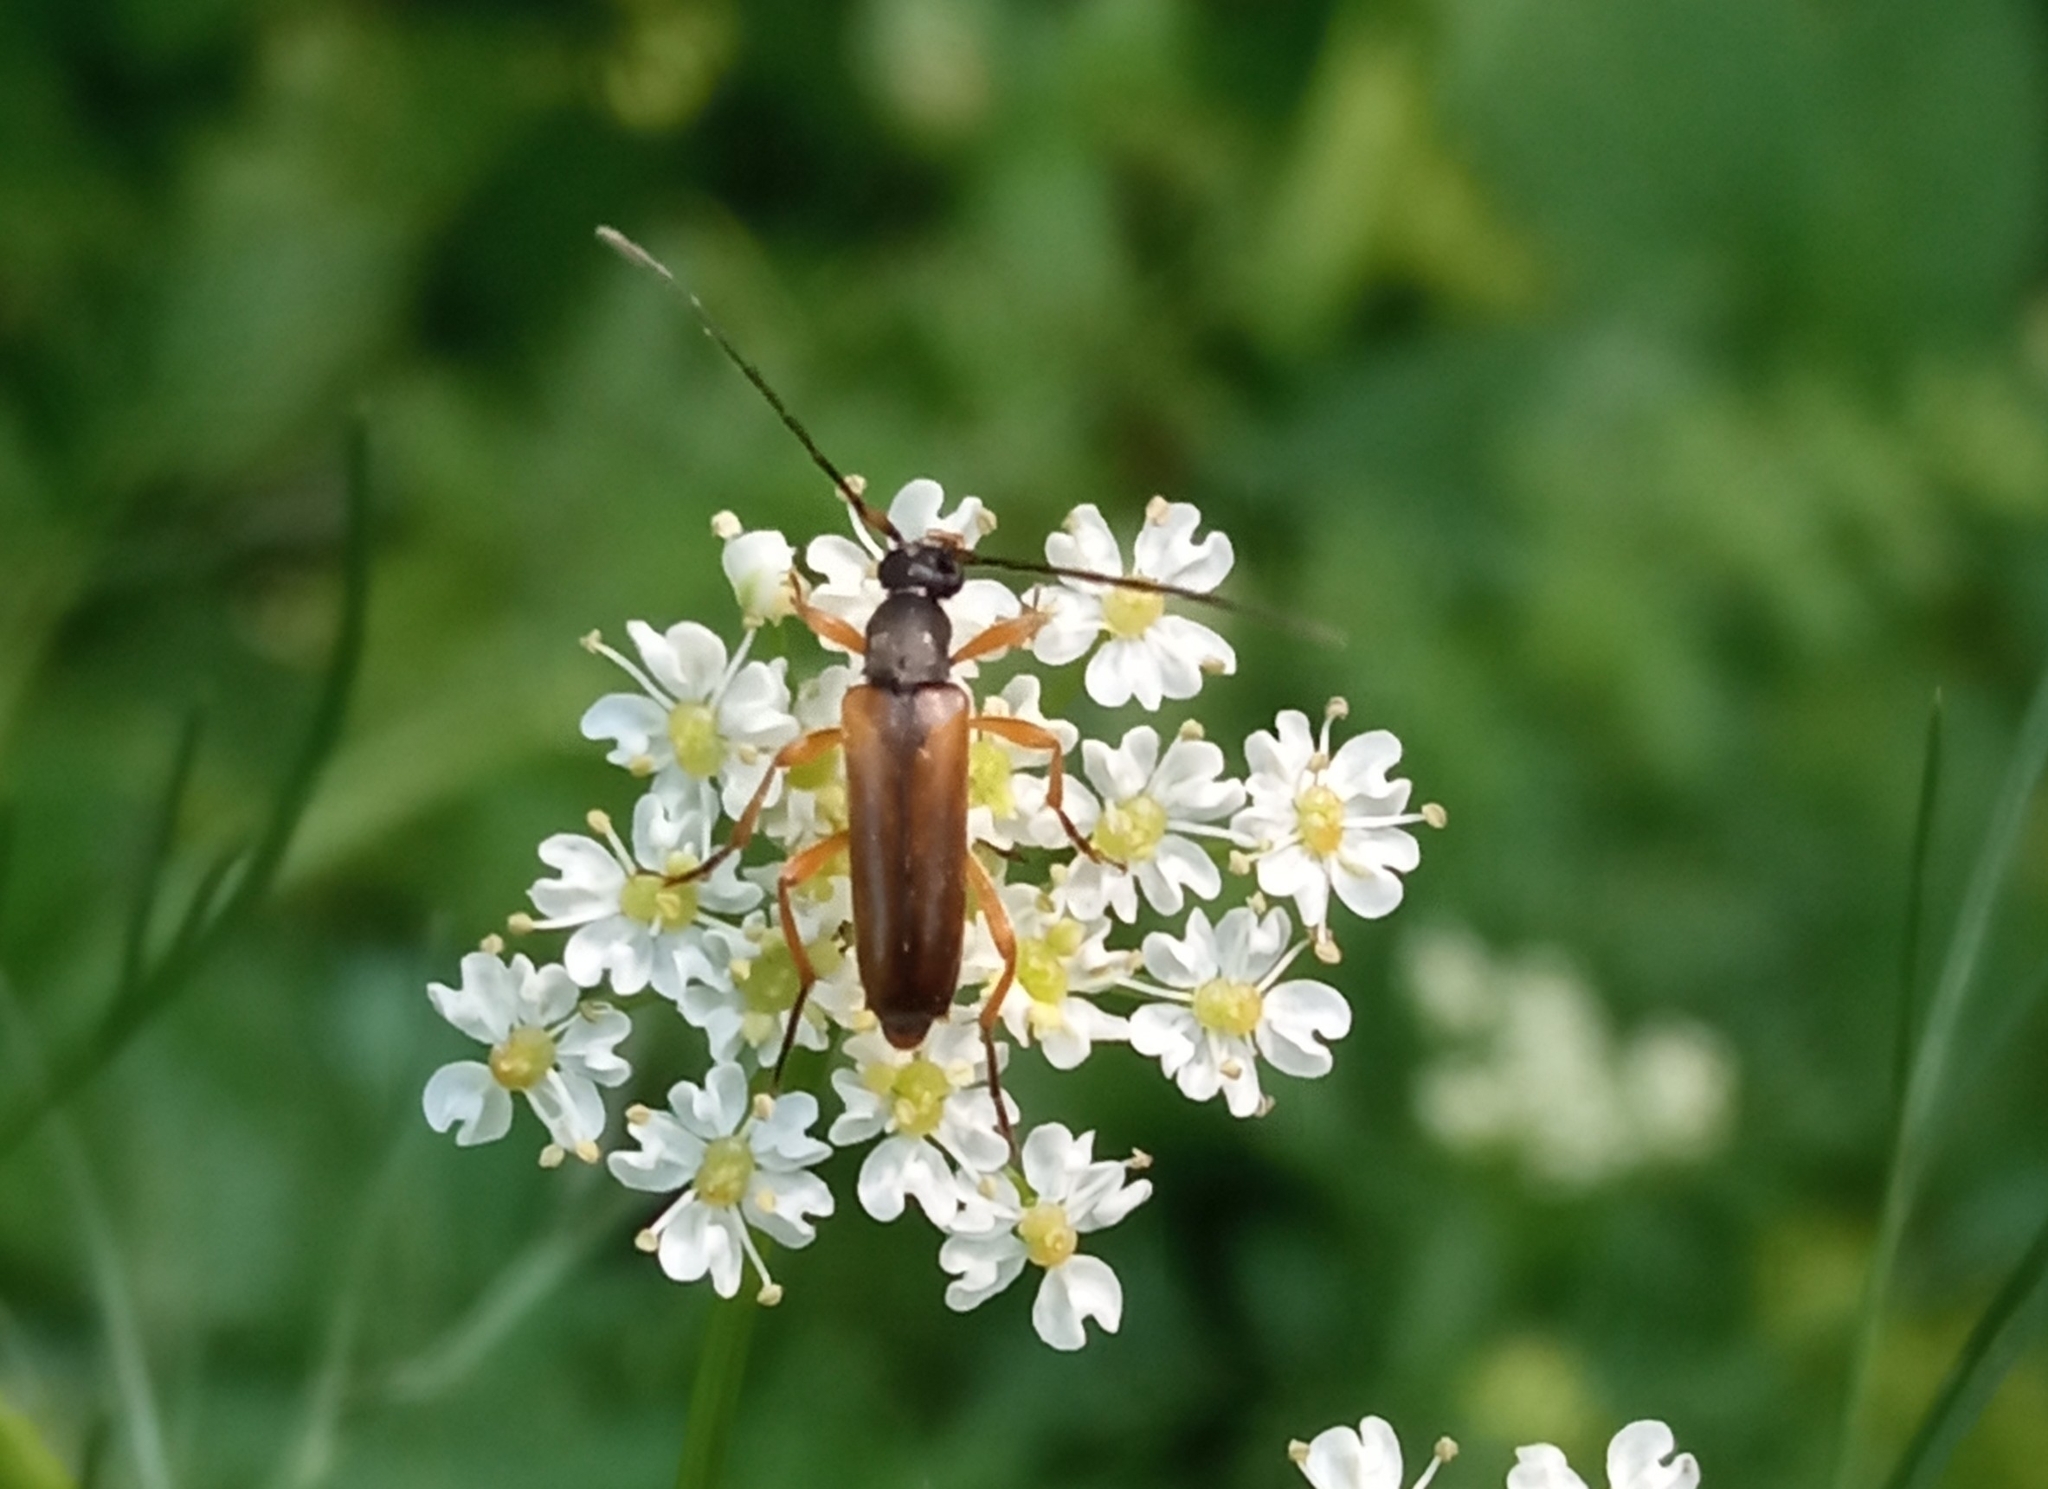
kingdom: Animalia
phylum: Arthropoda
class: Insecta
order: Coleoptera
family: Cerambycidae
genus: Alosterna
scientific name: Alosterna tabacicolor
